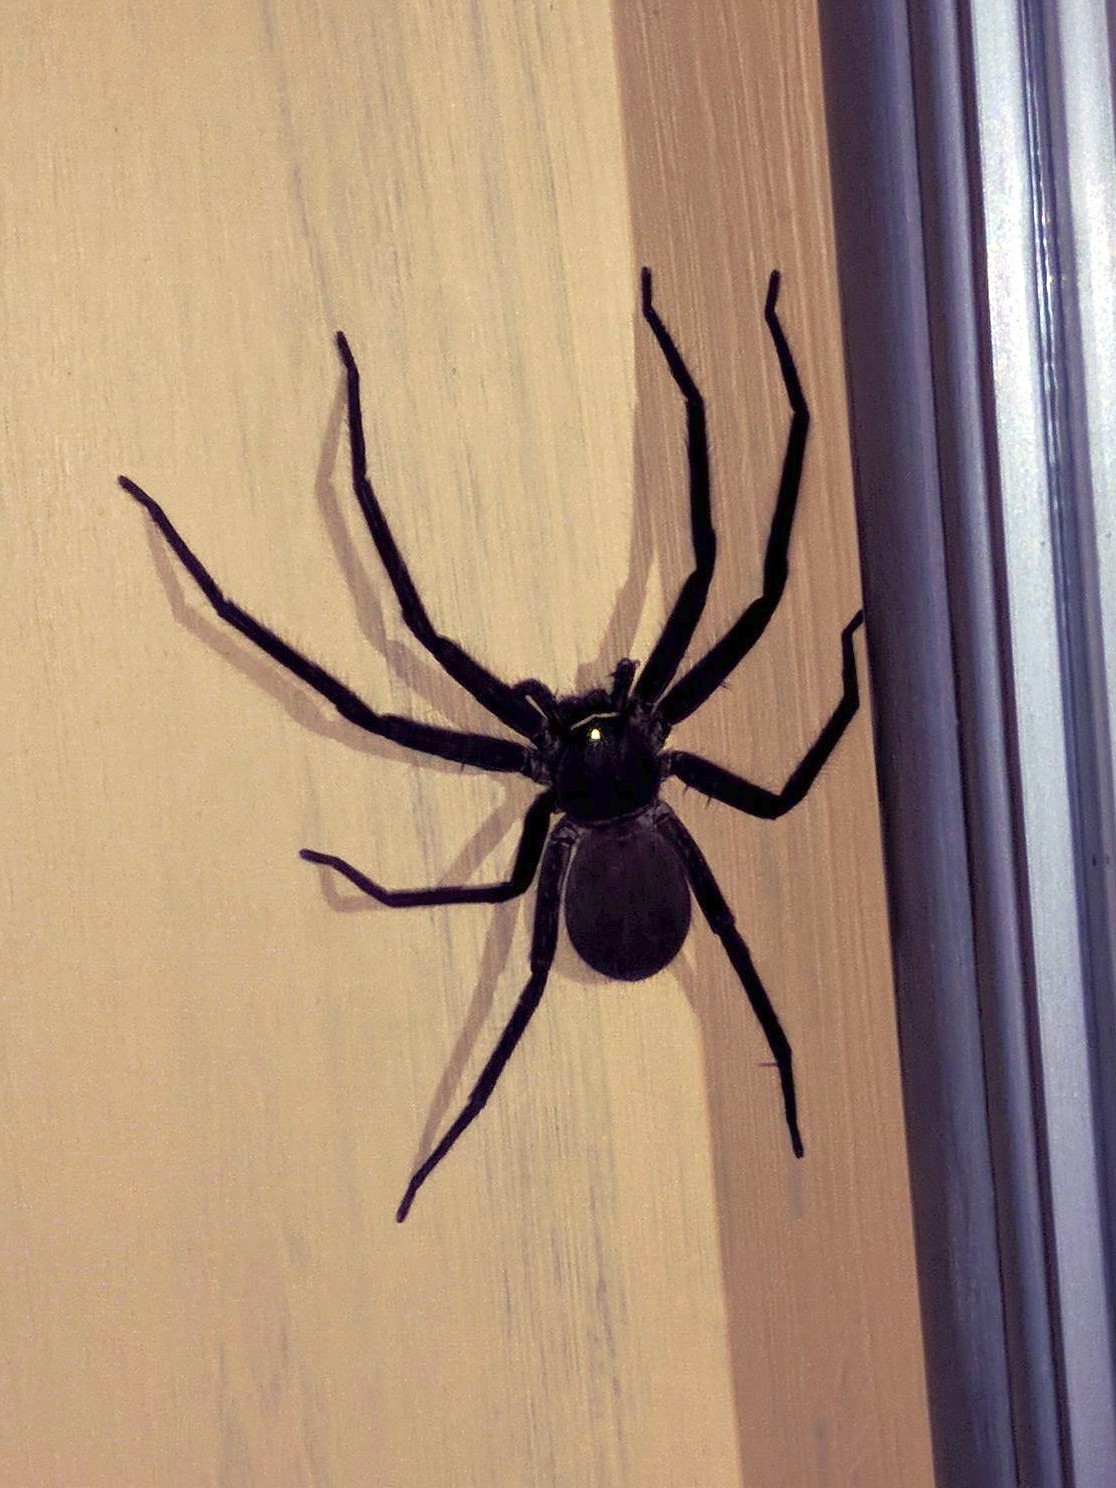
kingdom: Animalia
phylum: Arthropoda
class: Arachnida
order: Araneae
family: Sparassidae
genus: Heteropoda
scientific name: Heteropoda nobilis
